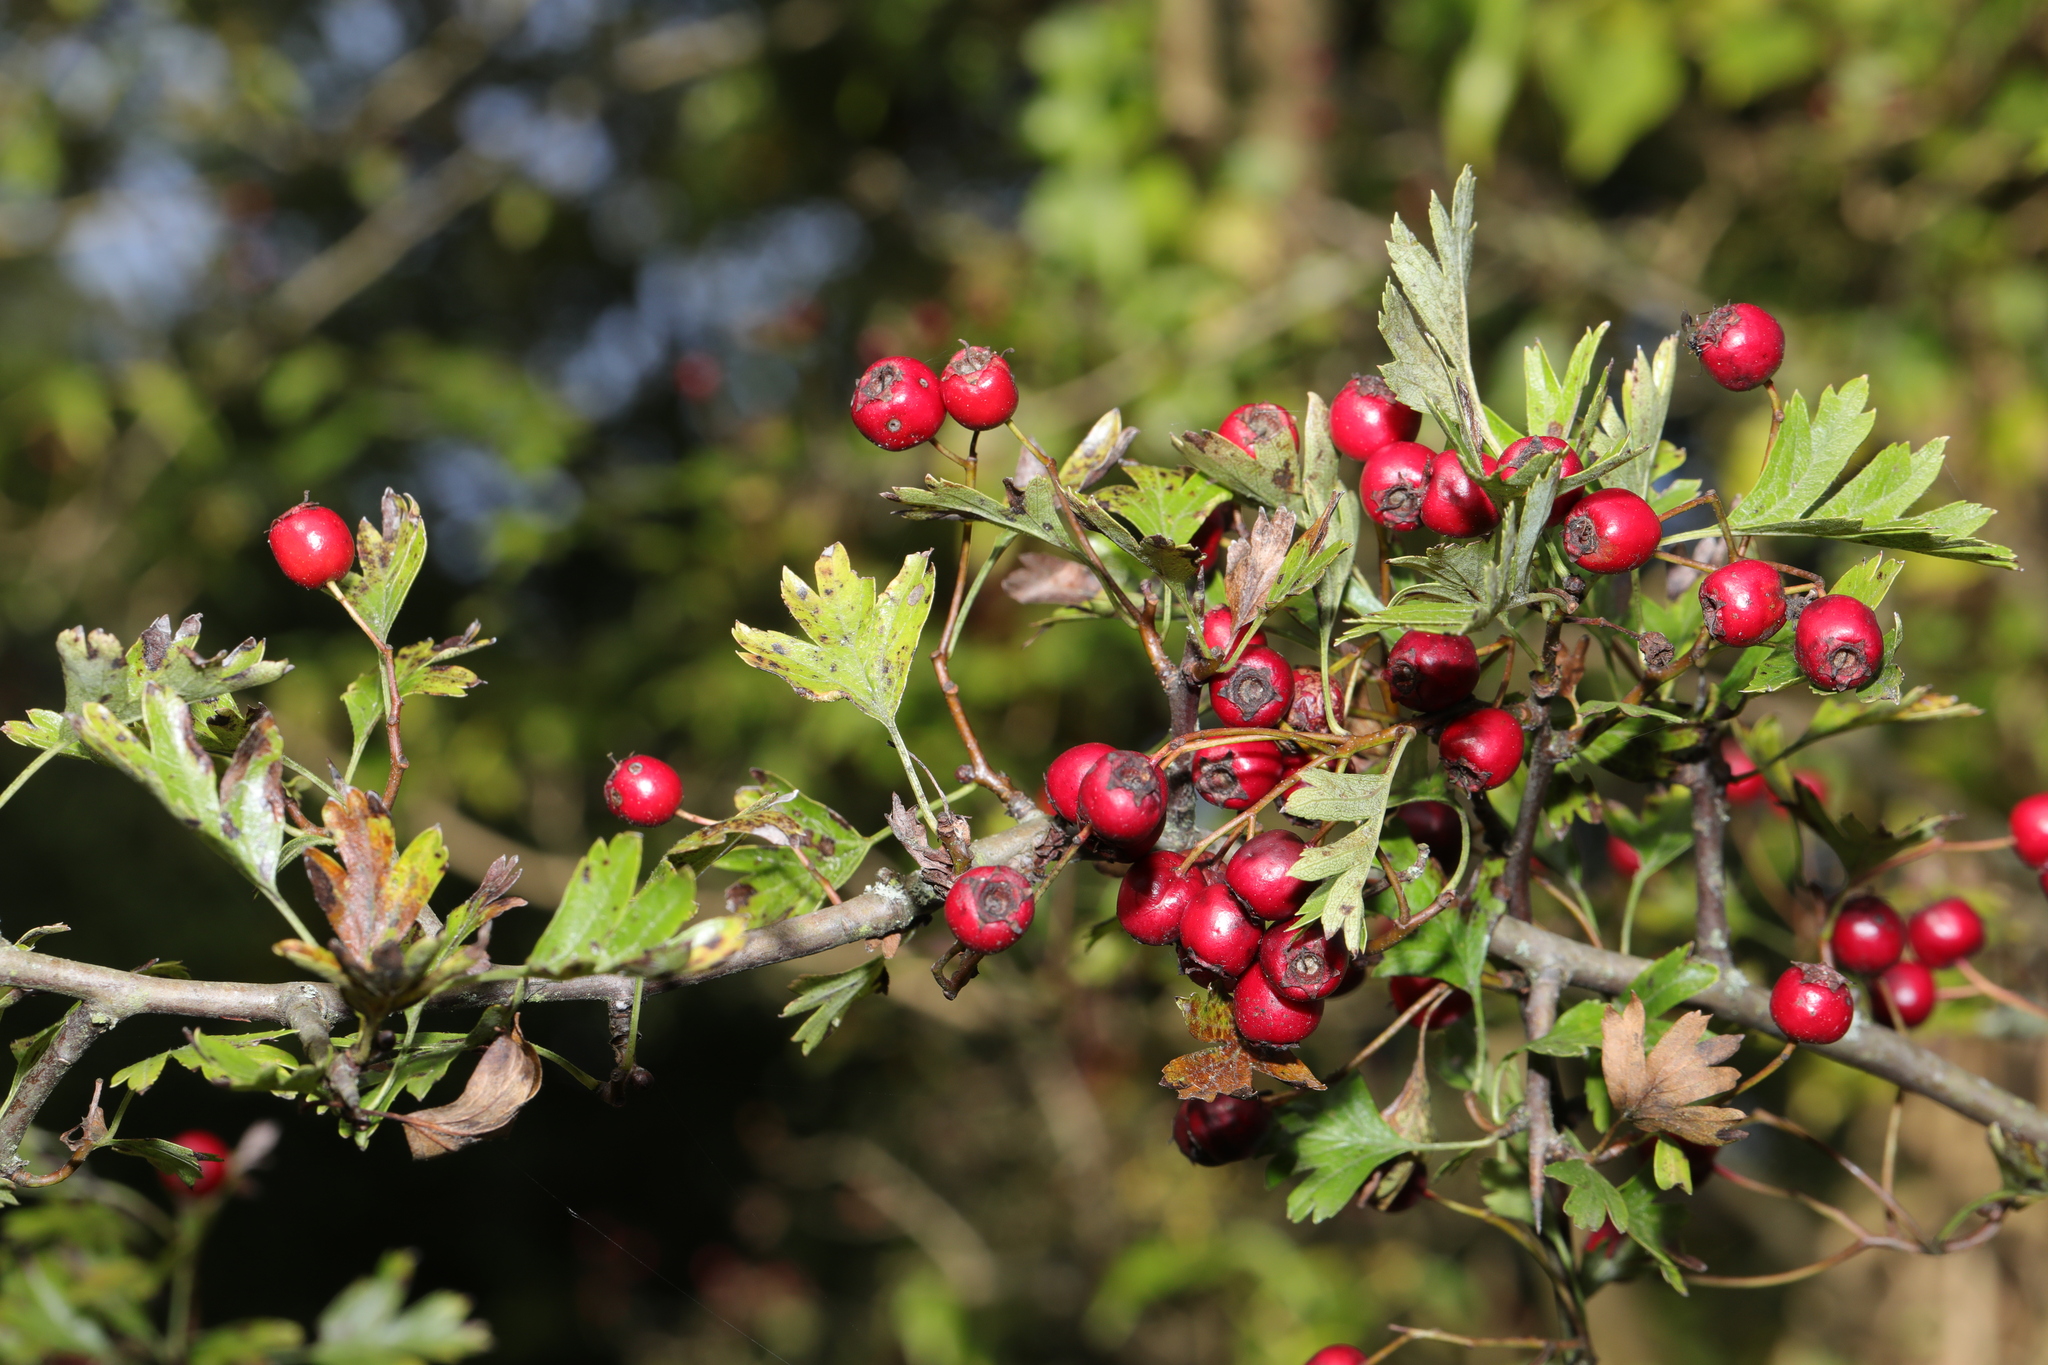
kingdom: Plantae
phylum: Tracheophyta
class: Magnoliopsida
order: Rosales
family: Rosaceae
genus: Crataegus
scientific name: Crataegus monogyna
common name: Hawthorn
